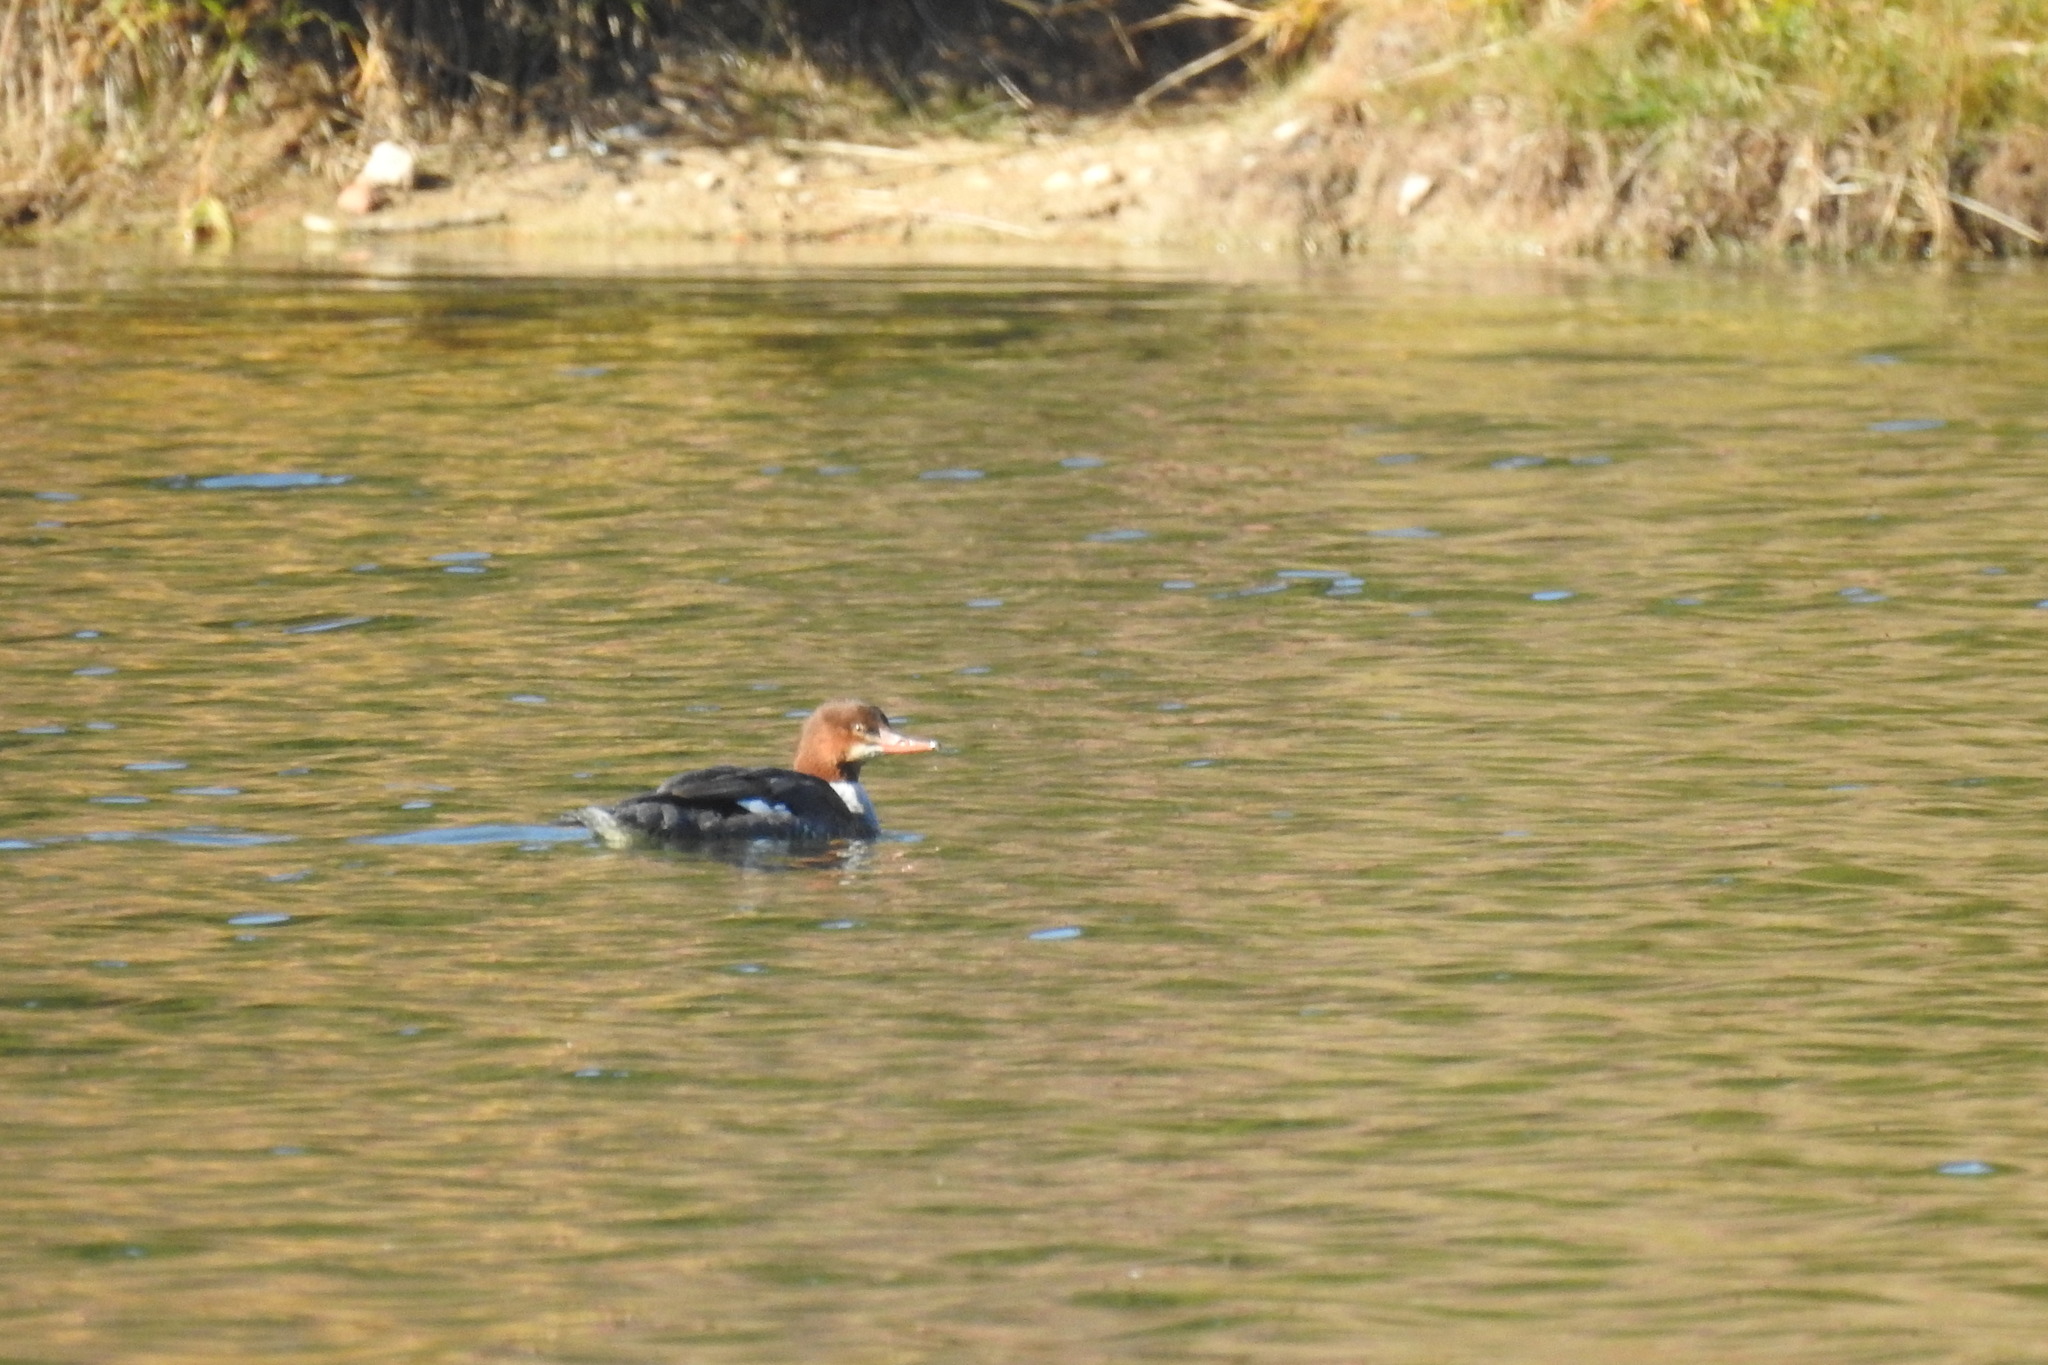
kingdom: Animalia
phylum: Chordata
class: Aves
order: Anseriformes
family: Anatidae
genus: Mergus
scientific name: Mergus merganser
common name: Common merganser
